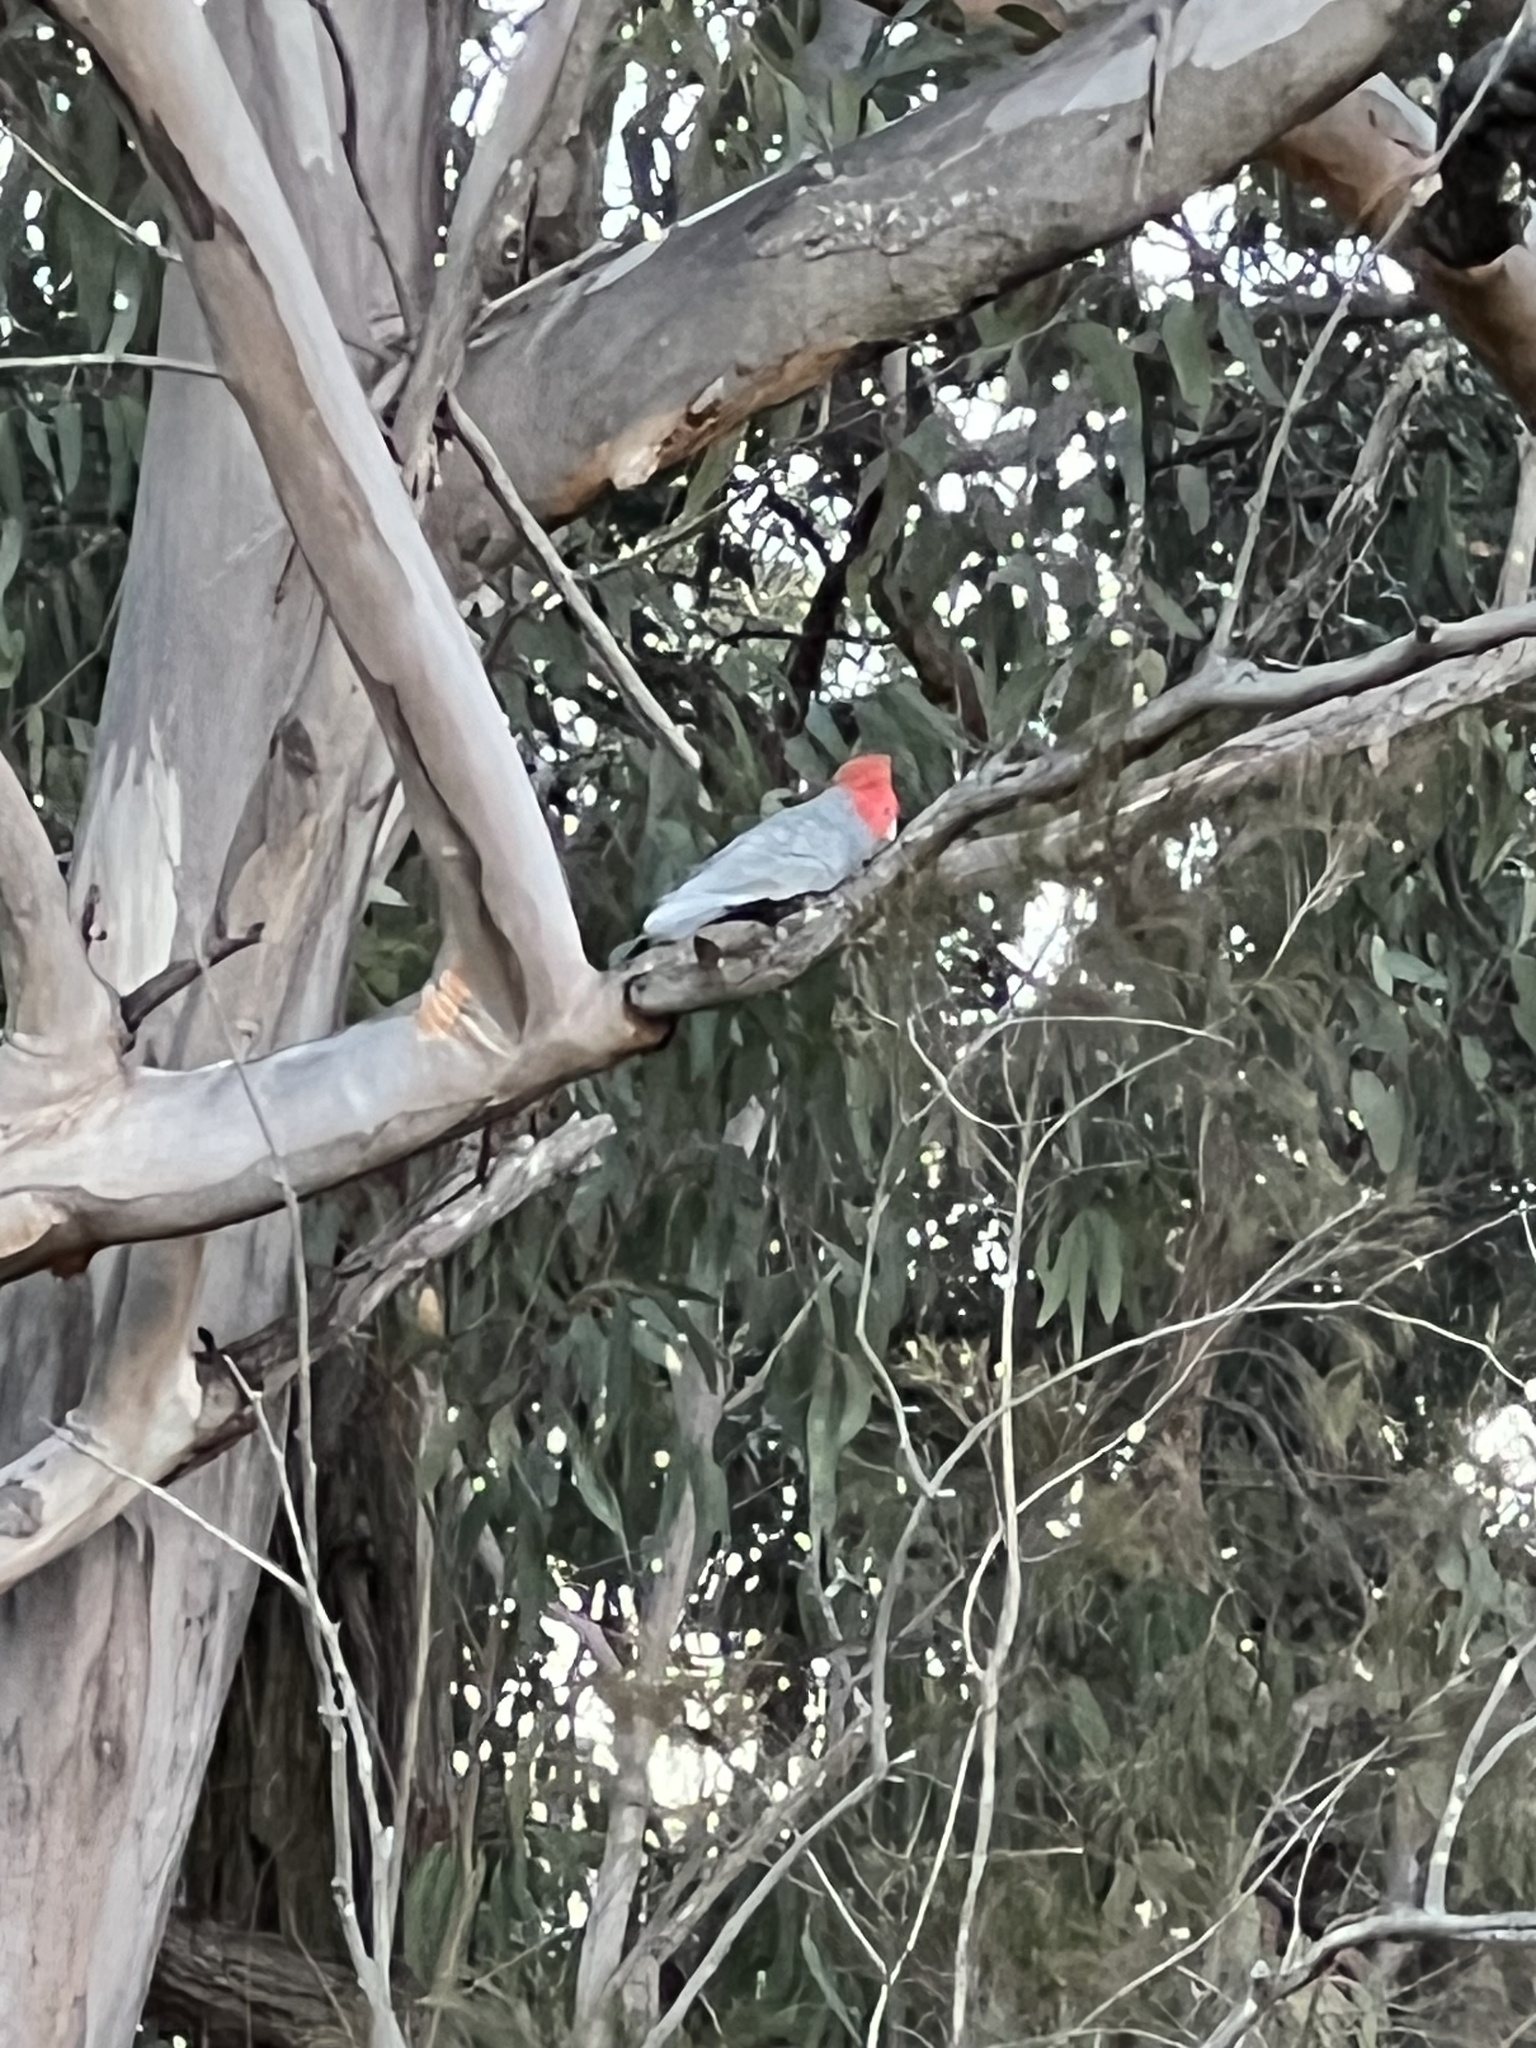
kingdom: Animalia
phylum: Chordata
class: Aves
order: Psittaciformes
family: Psittacidae
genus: Callocephalon
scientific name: Callocephalon fimbriatum
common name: Gang-gang cockatoo
